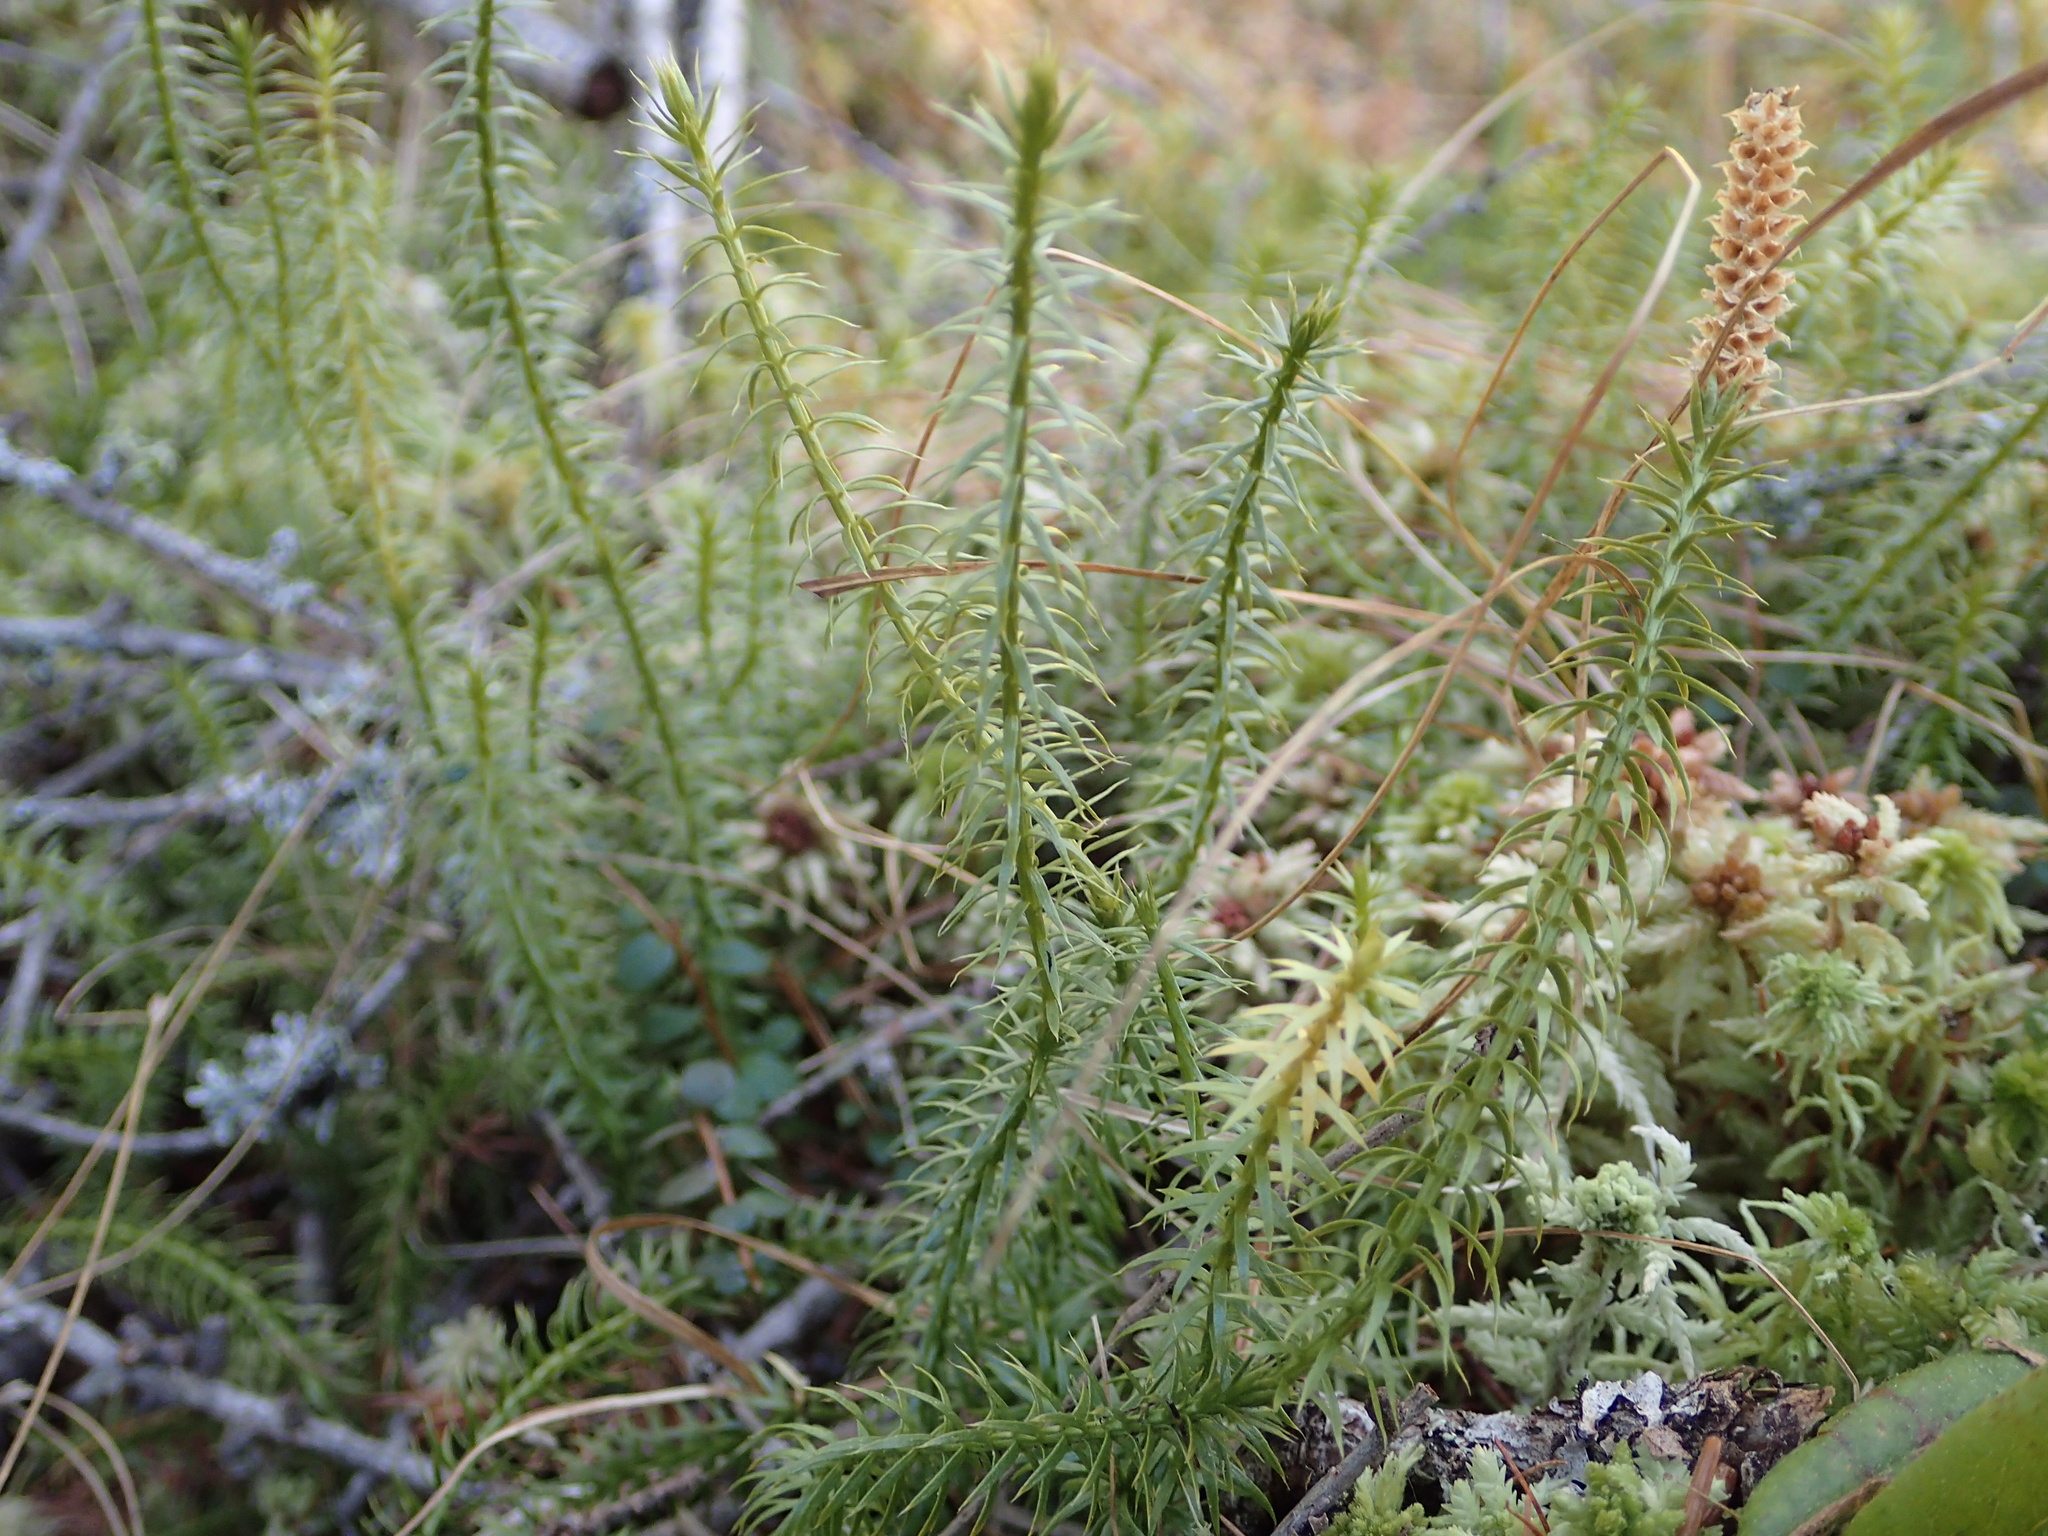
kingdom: Plantae
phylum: Tracheophyta
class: Lycopodiopsida
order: Lycopodiales
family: Lycopodiaceae
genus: Spinulum
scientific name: Spinulum annotinum
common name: Interrupted club-moss
